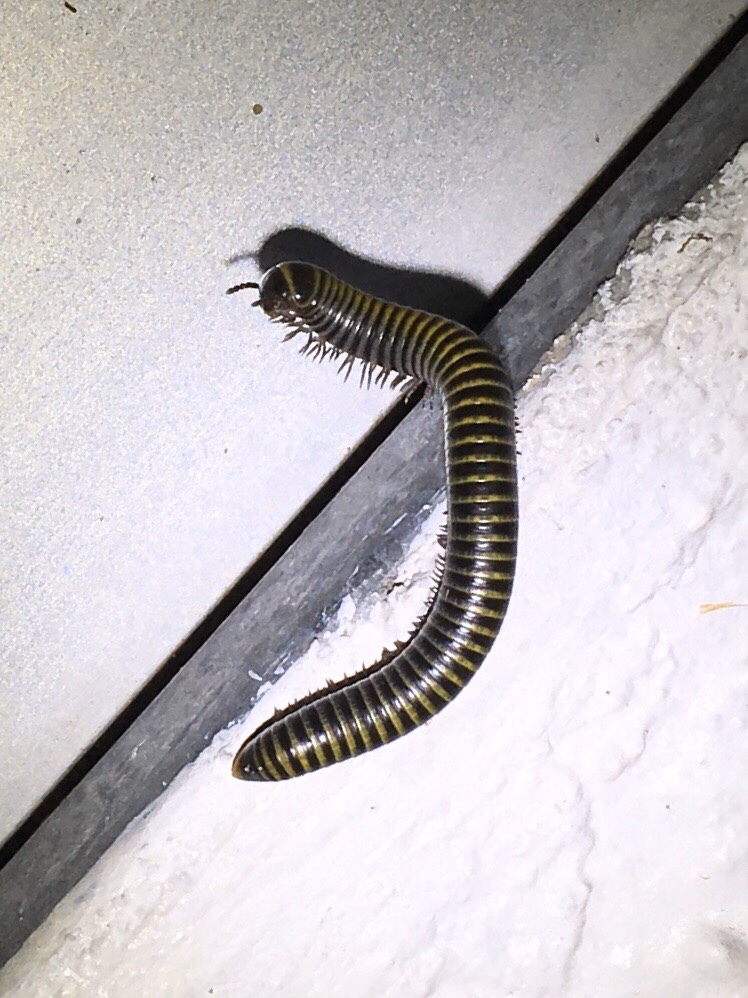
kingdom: Animalia
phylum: Arthropoda
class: Diplopoda
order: Spirobolida
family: Rhinocricidae
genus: Anadenobolus
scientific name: Anadenobolus monilicornis
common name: Caribbean millipede
